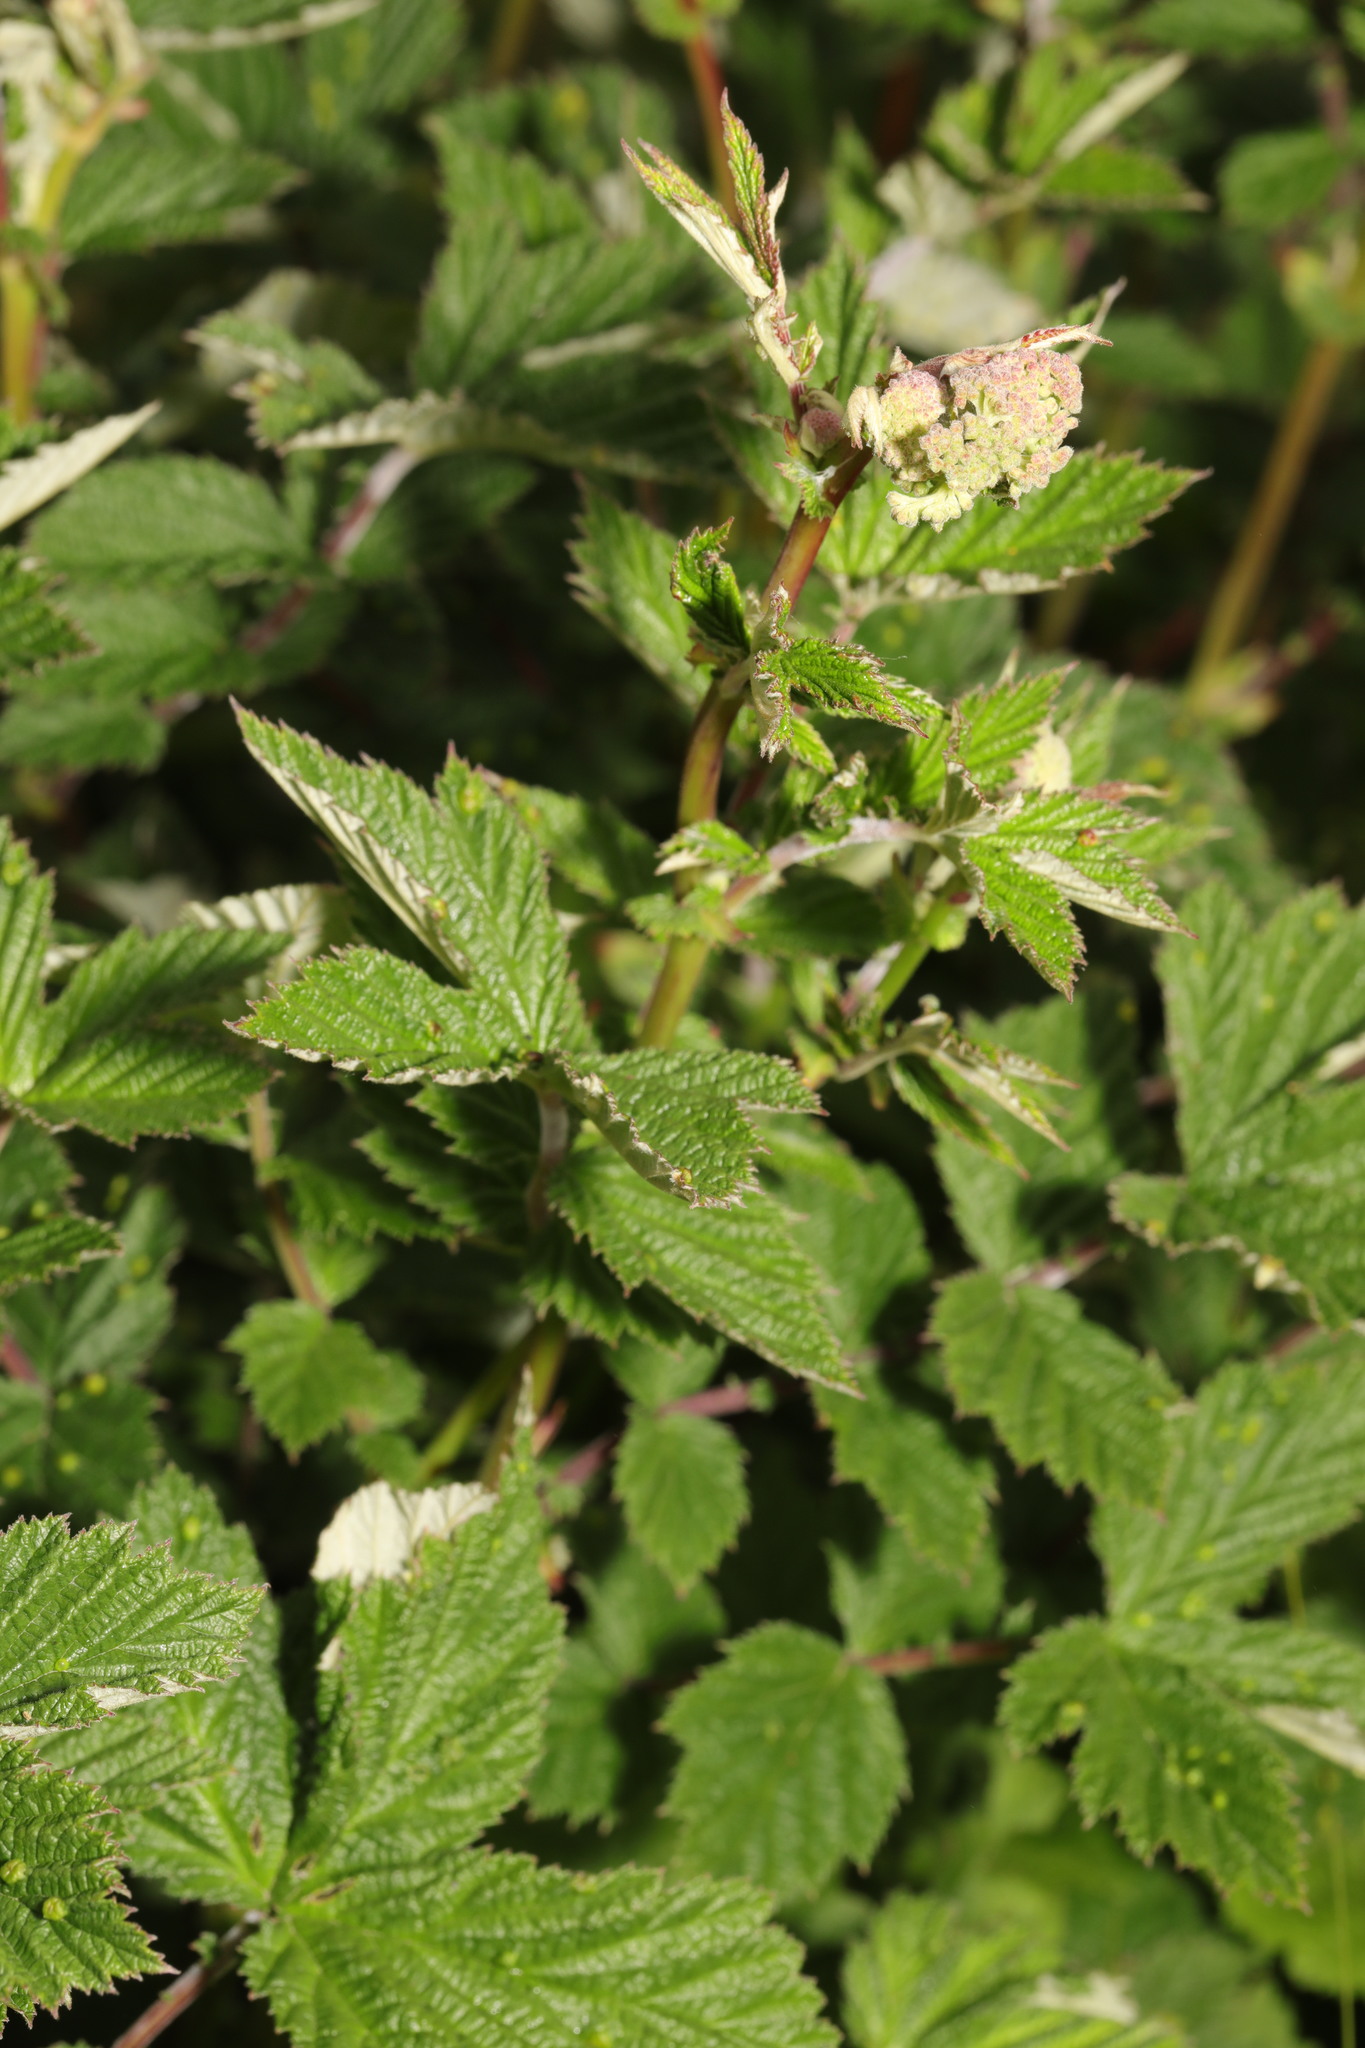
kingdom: Plantae
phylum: Tracheophyta
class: Magnoliopsida
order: Rosales
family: Rosaceae
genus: Filipendula
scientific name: Filipendula ulmaria
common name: Meadowsweet
